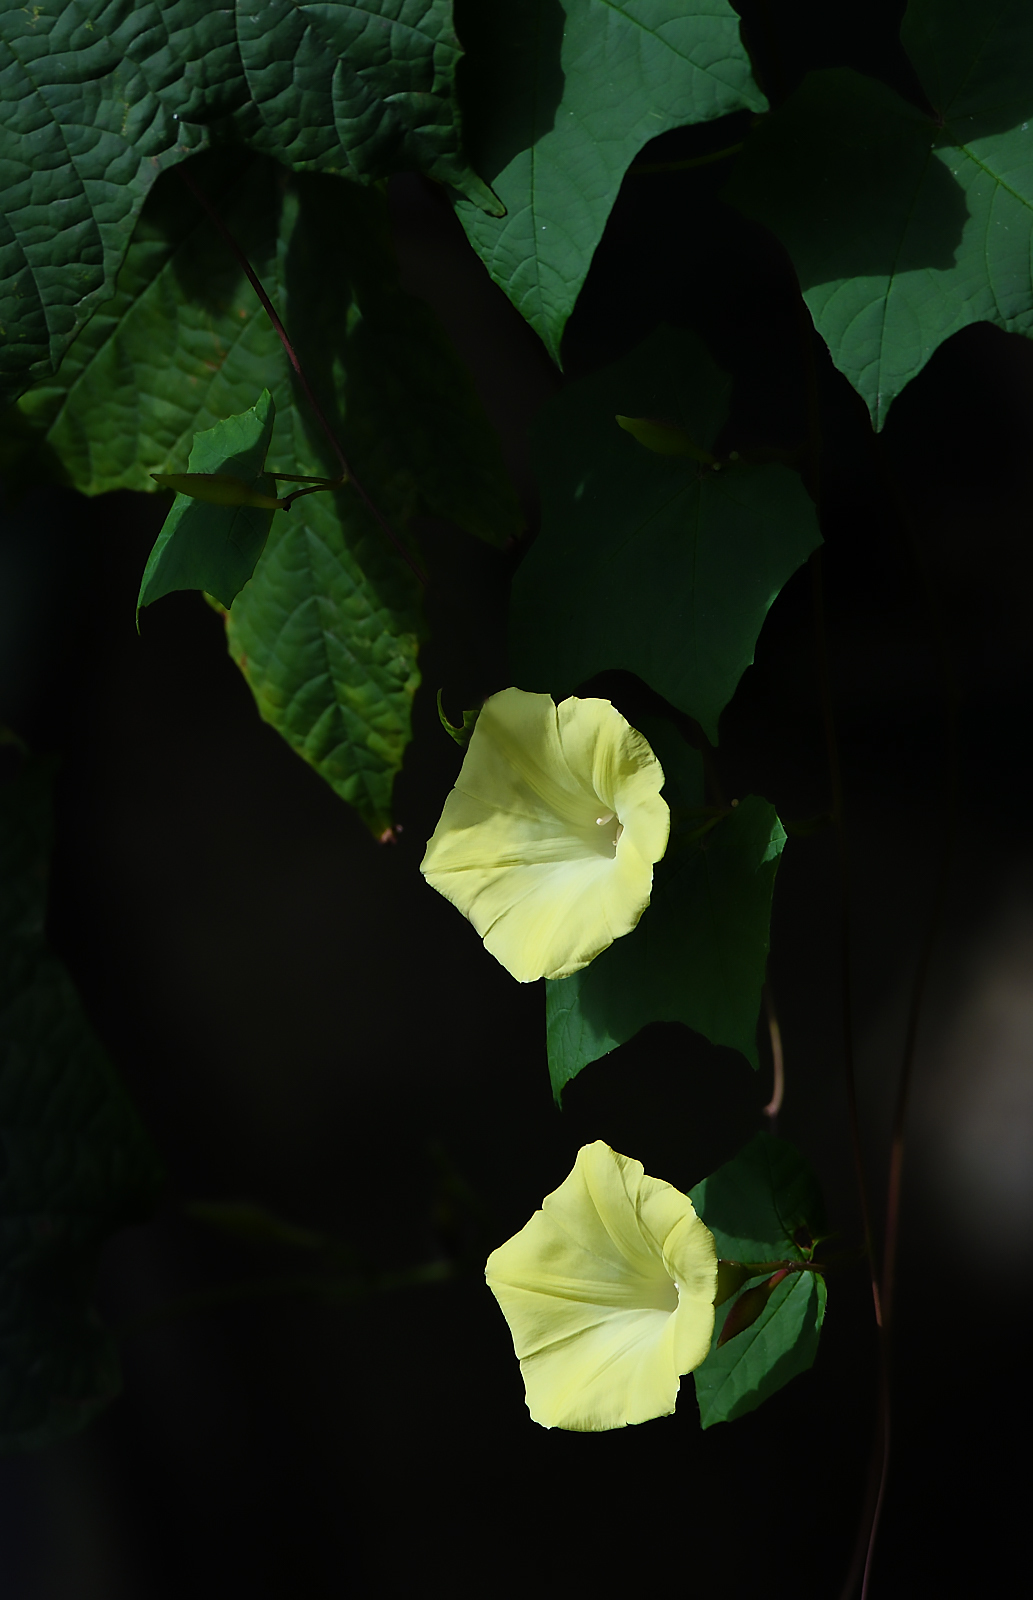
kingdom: Plantae
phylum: Tracheophyta
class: Magnoliopsida
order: Solanales
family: Convolvulaceae
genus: Distimake
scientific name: Distimake
